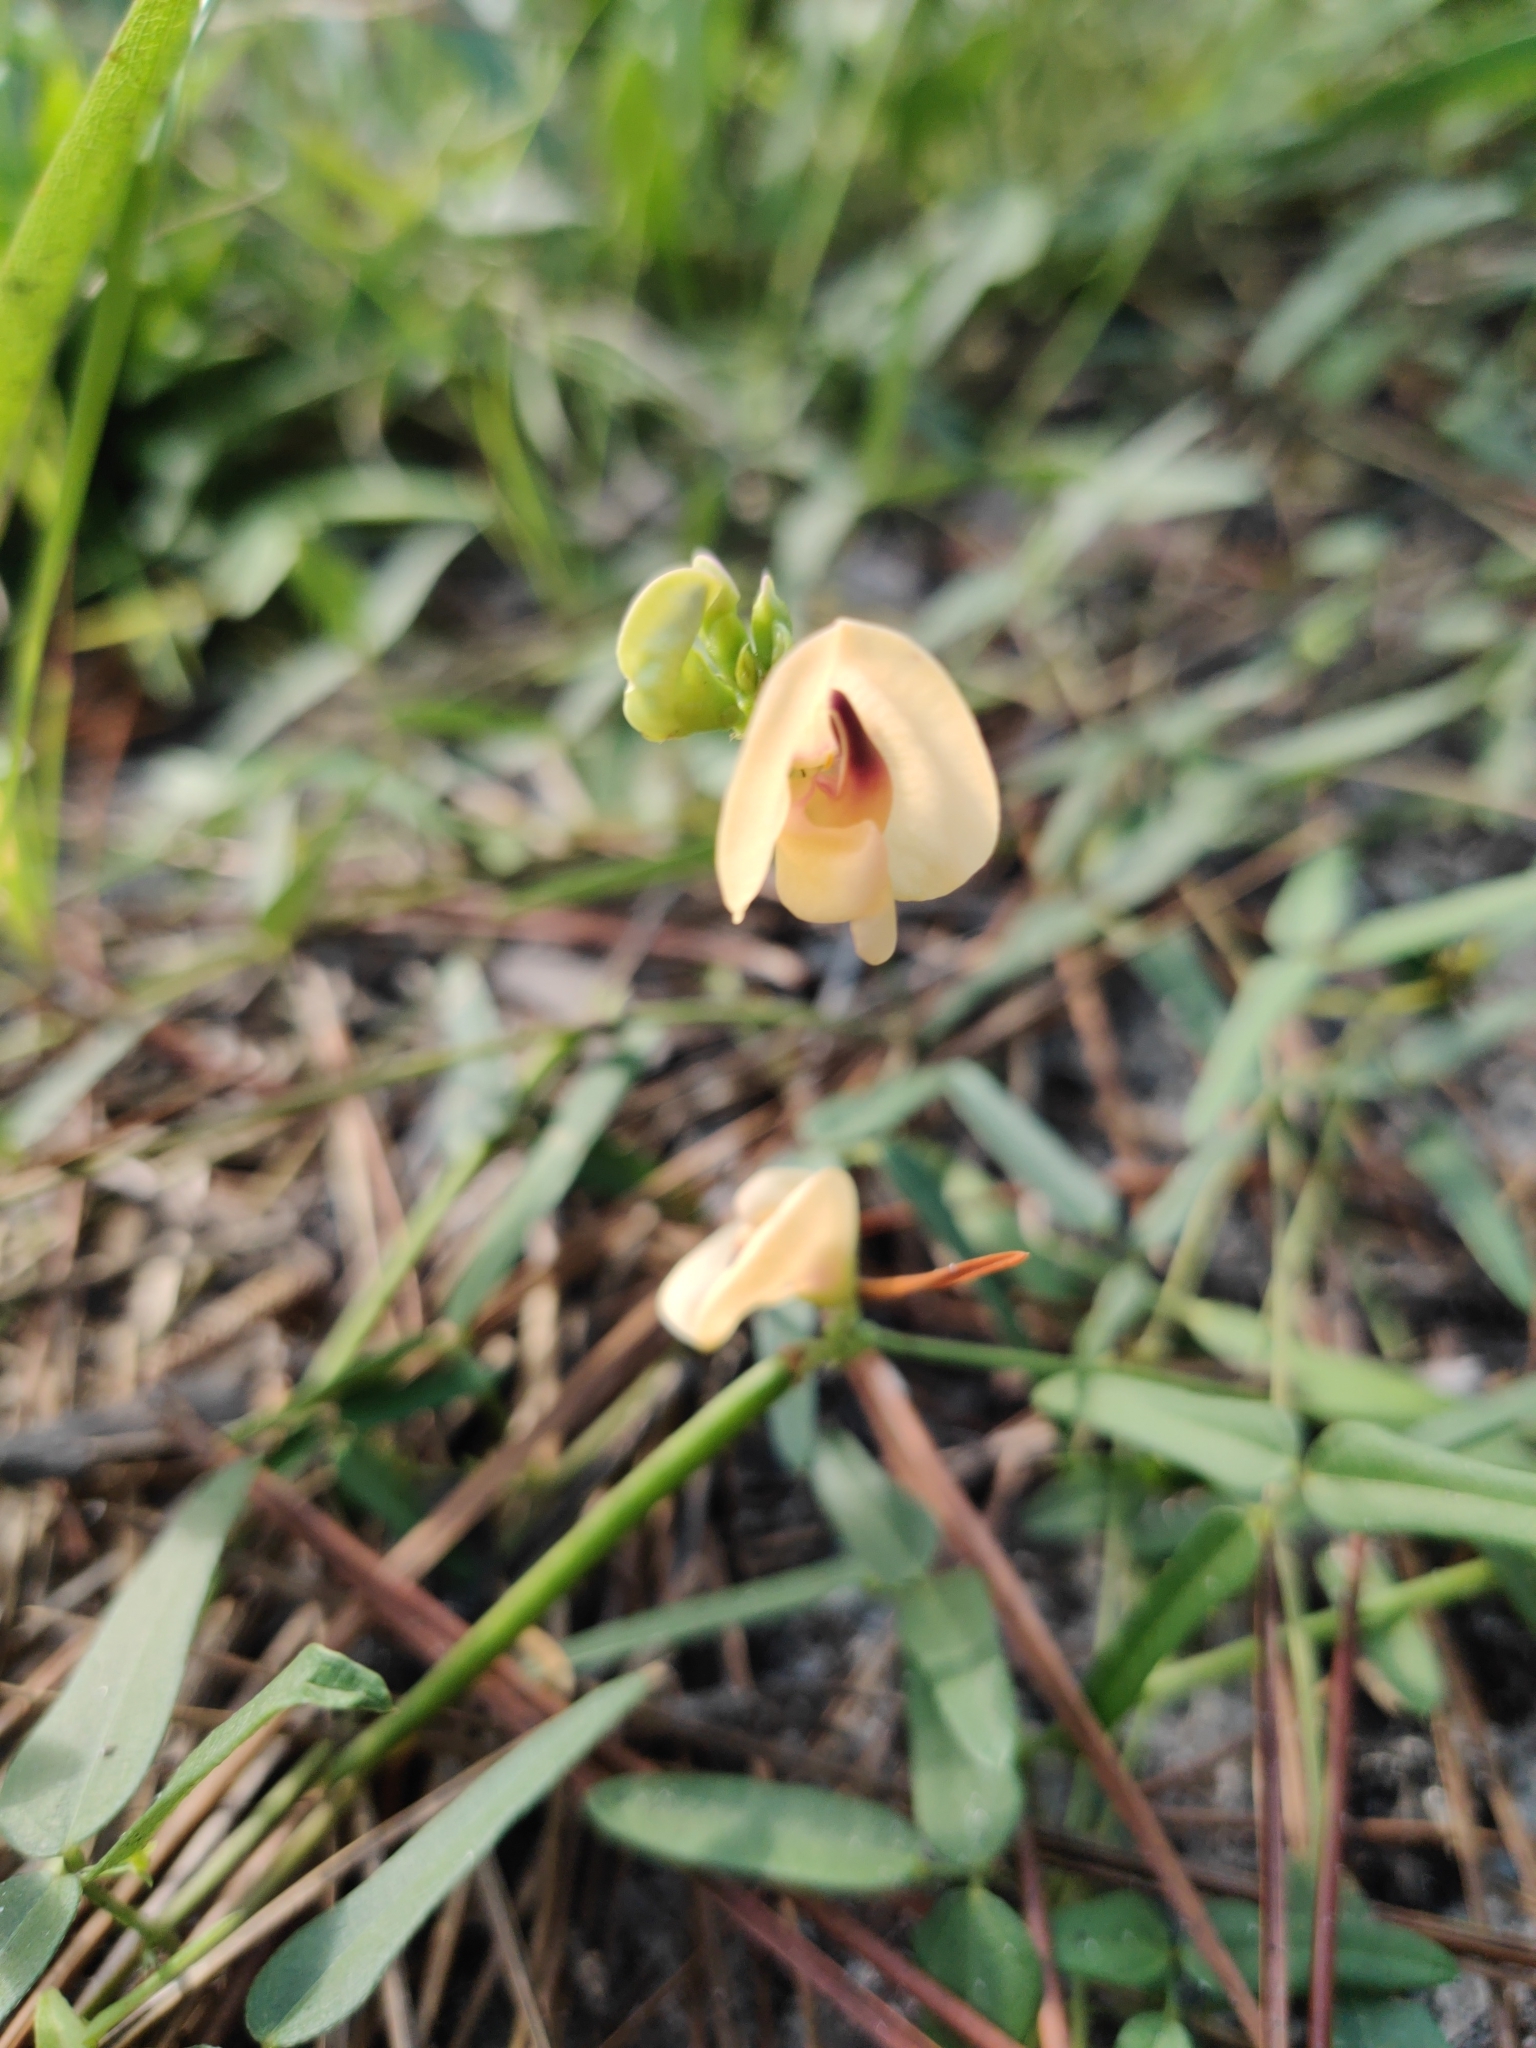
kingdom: Plantae
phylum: Tracheophyta
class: Magnoliopsida
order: Fabales
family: Fabaceae
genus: Strophostyles
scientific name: Strophostyles umbellata
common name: Perennial wild bean
